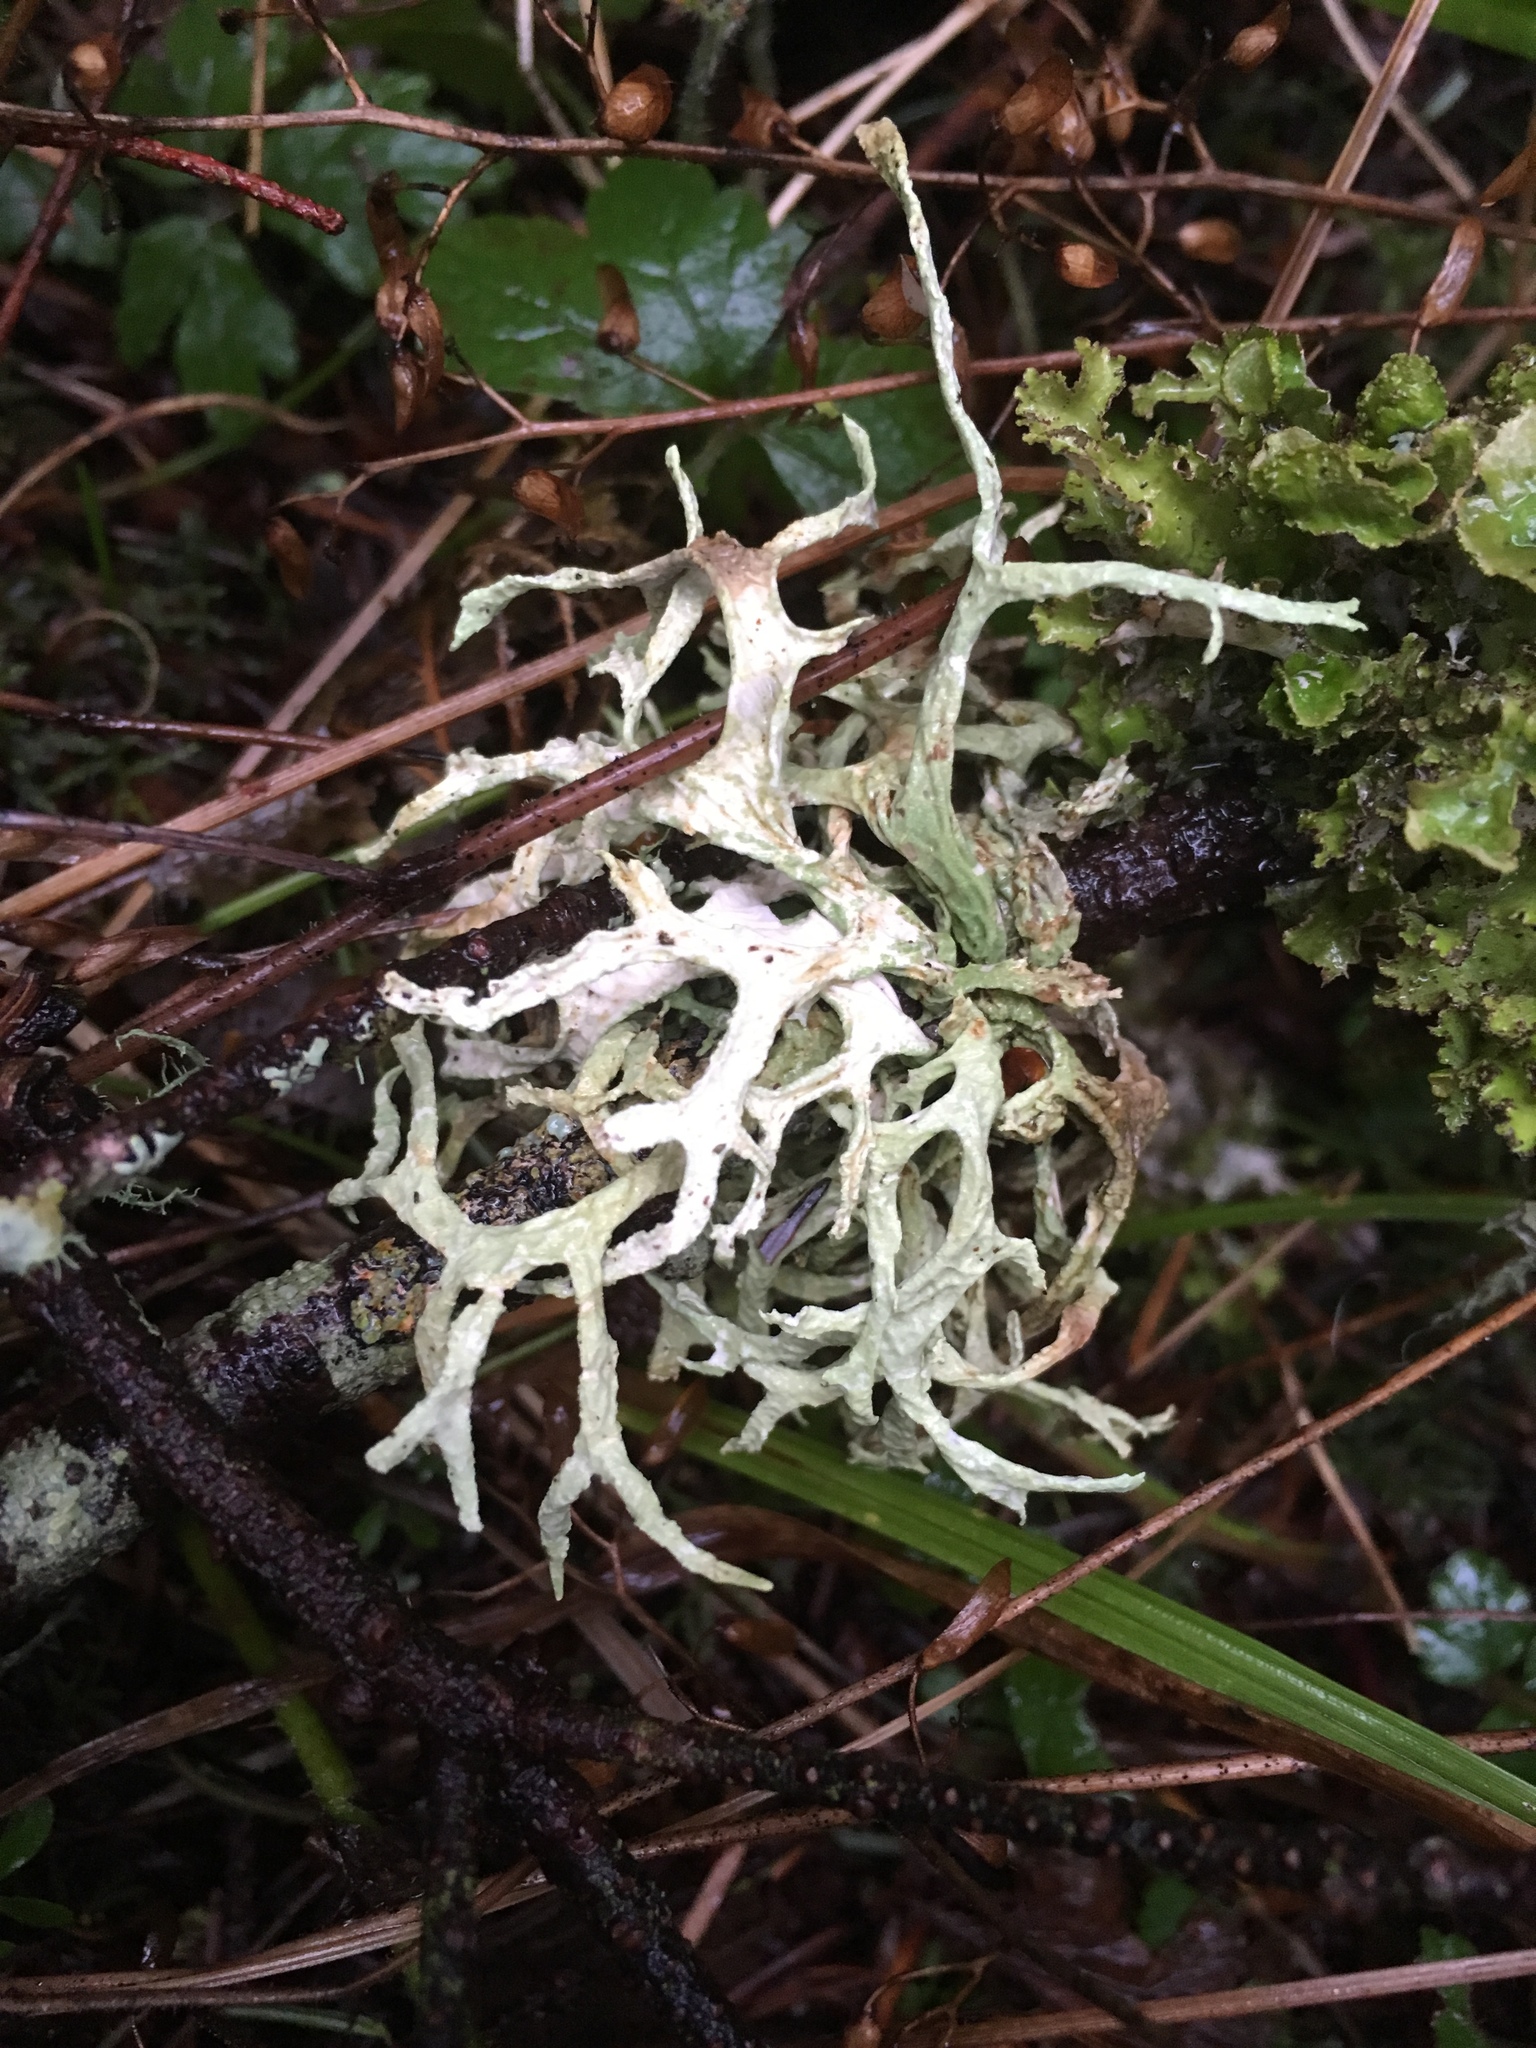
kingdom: Fungi
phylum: Ascomycota
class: Lecanoromycetes
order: Lecanorales
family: Parmeliaceae
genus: Evernia
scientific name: Evernia prunastri
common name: Oak moss
